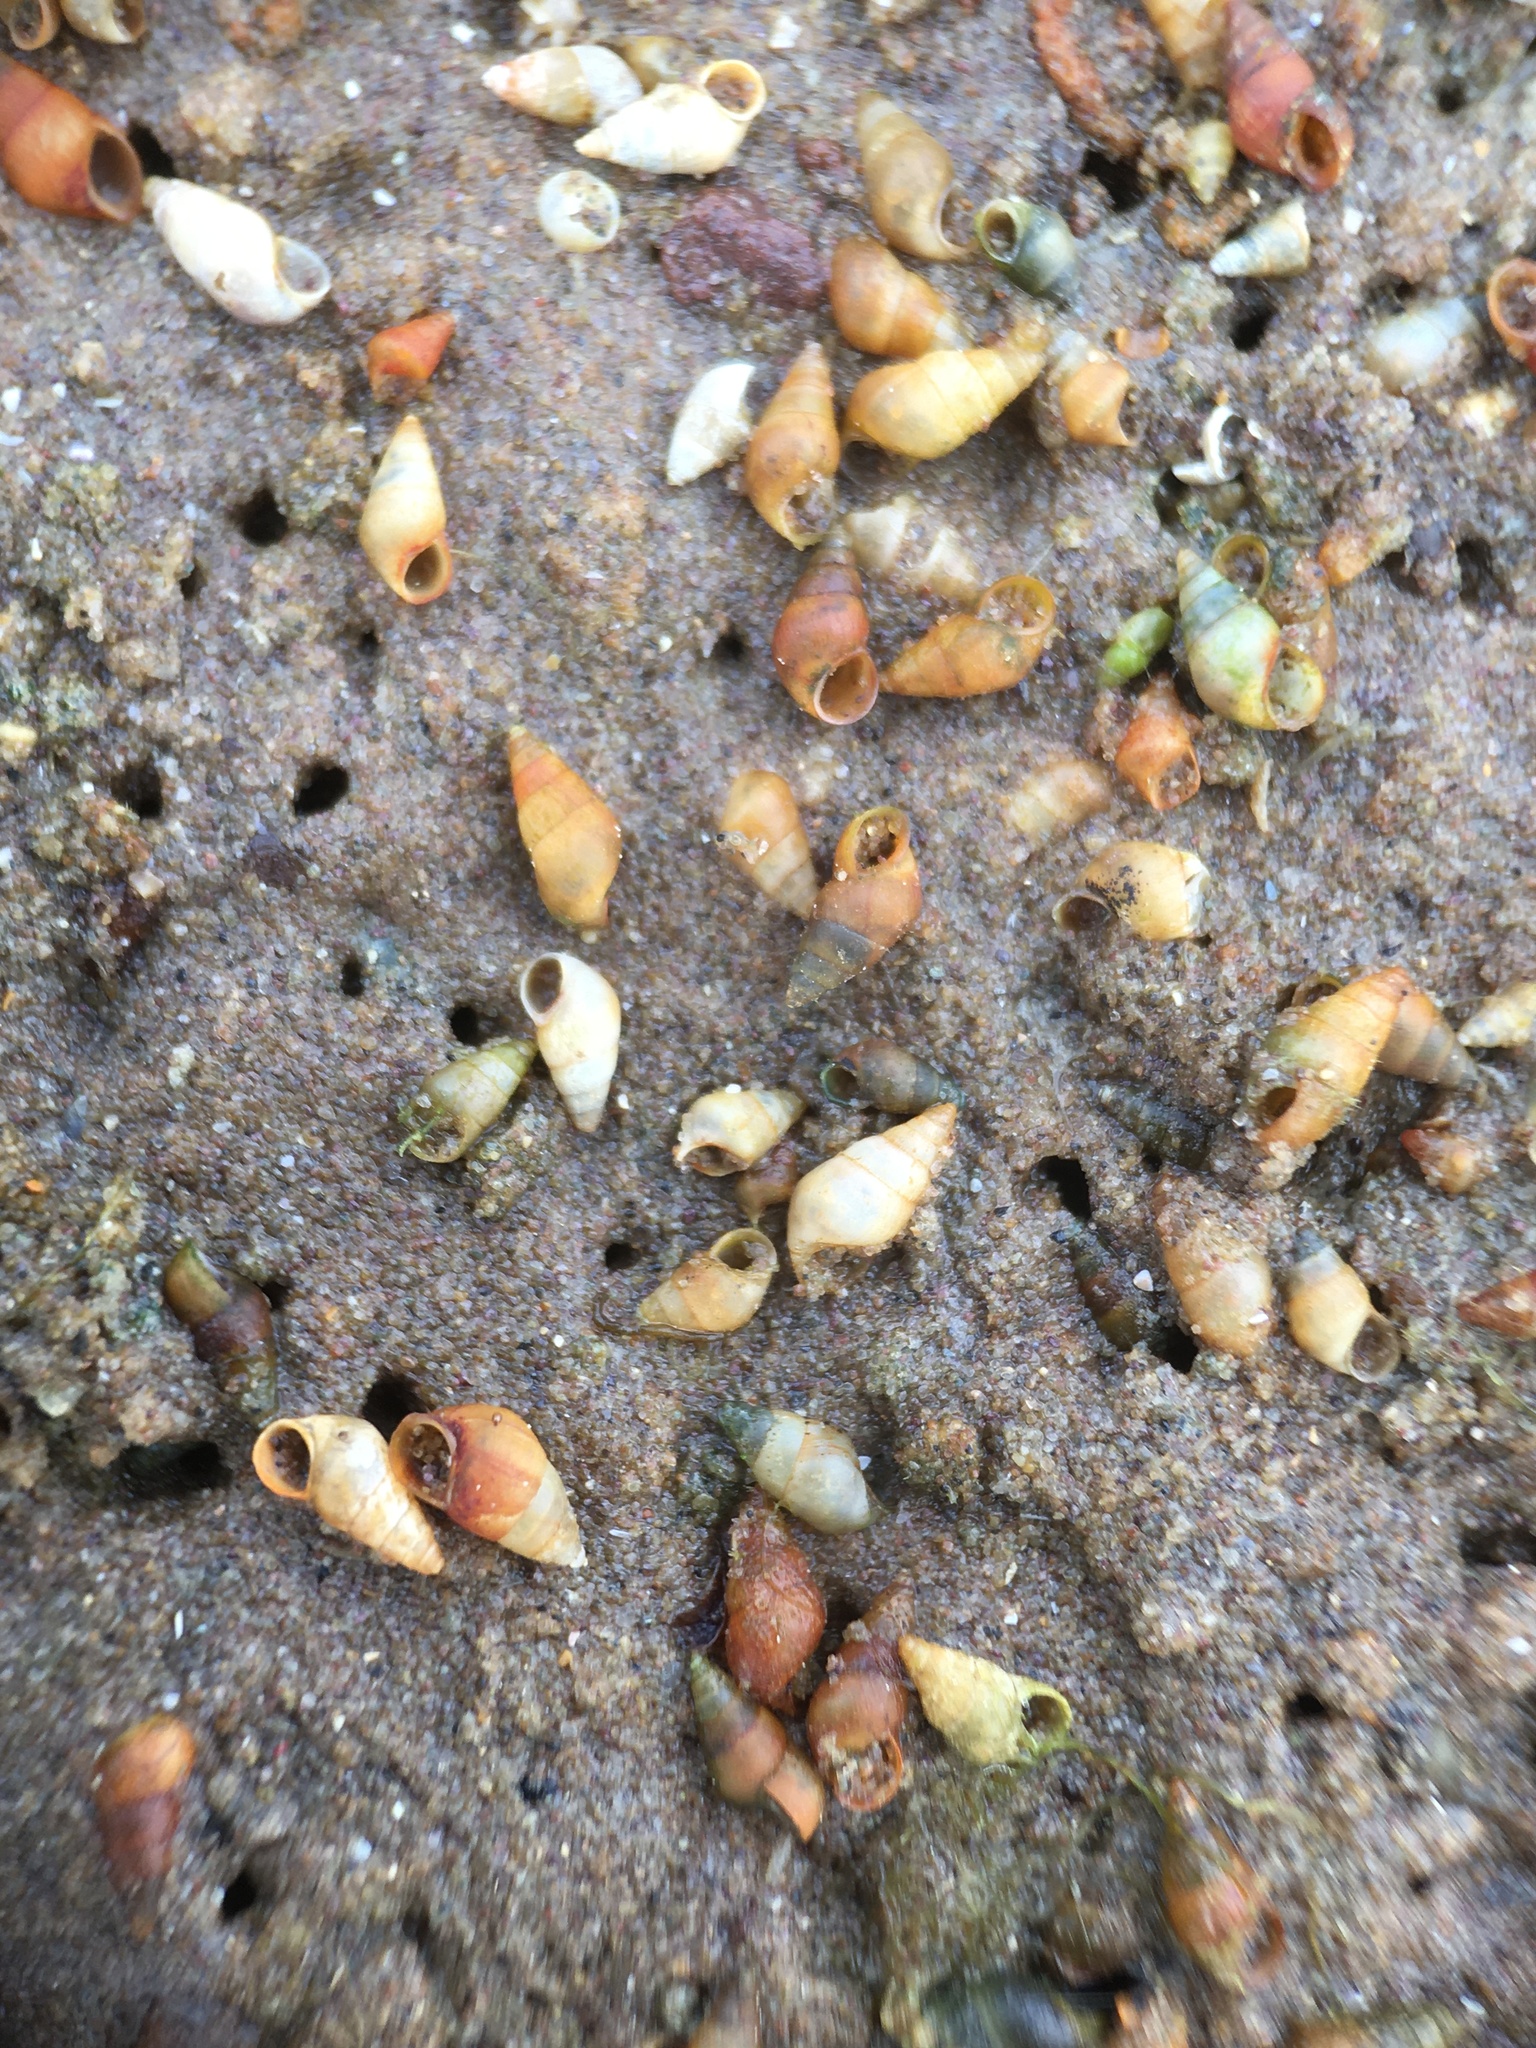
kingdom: Animalia
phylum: Mollusca
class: Gastropoda
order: Littorinimorpha
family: Hydrobiidae
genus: Peringia
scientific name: Peringia ulvae
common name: Laver spire shell
